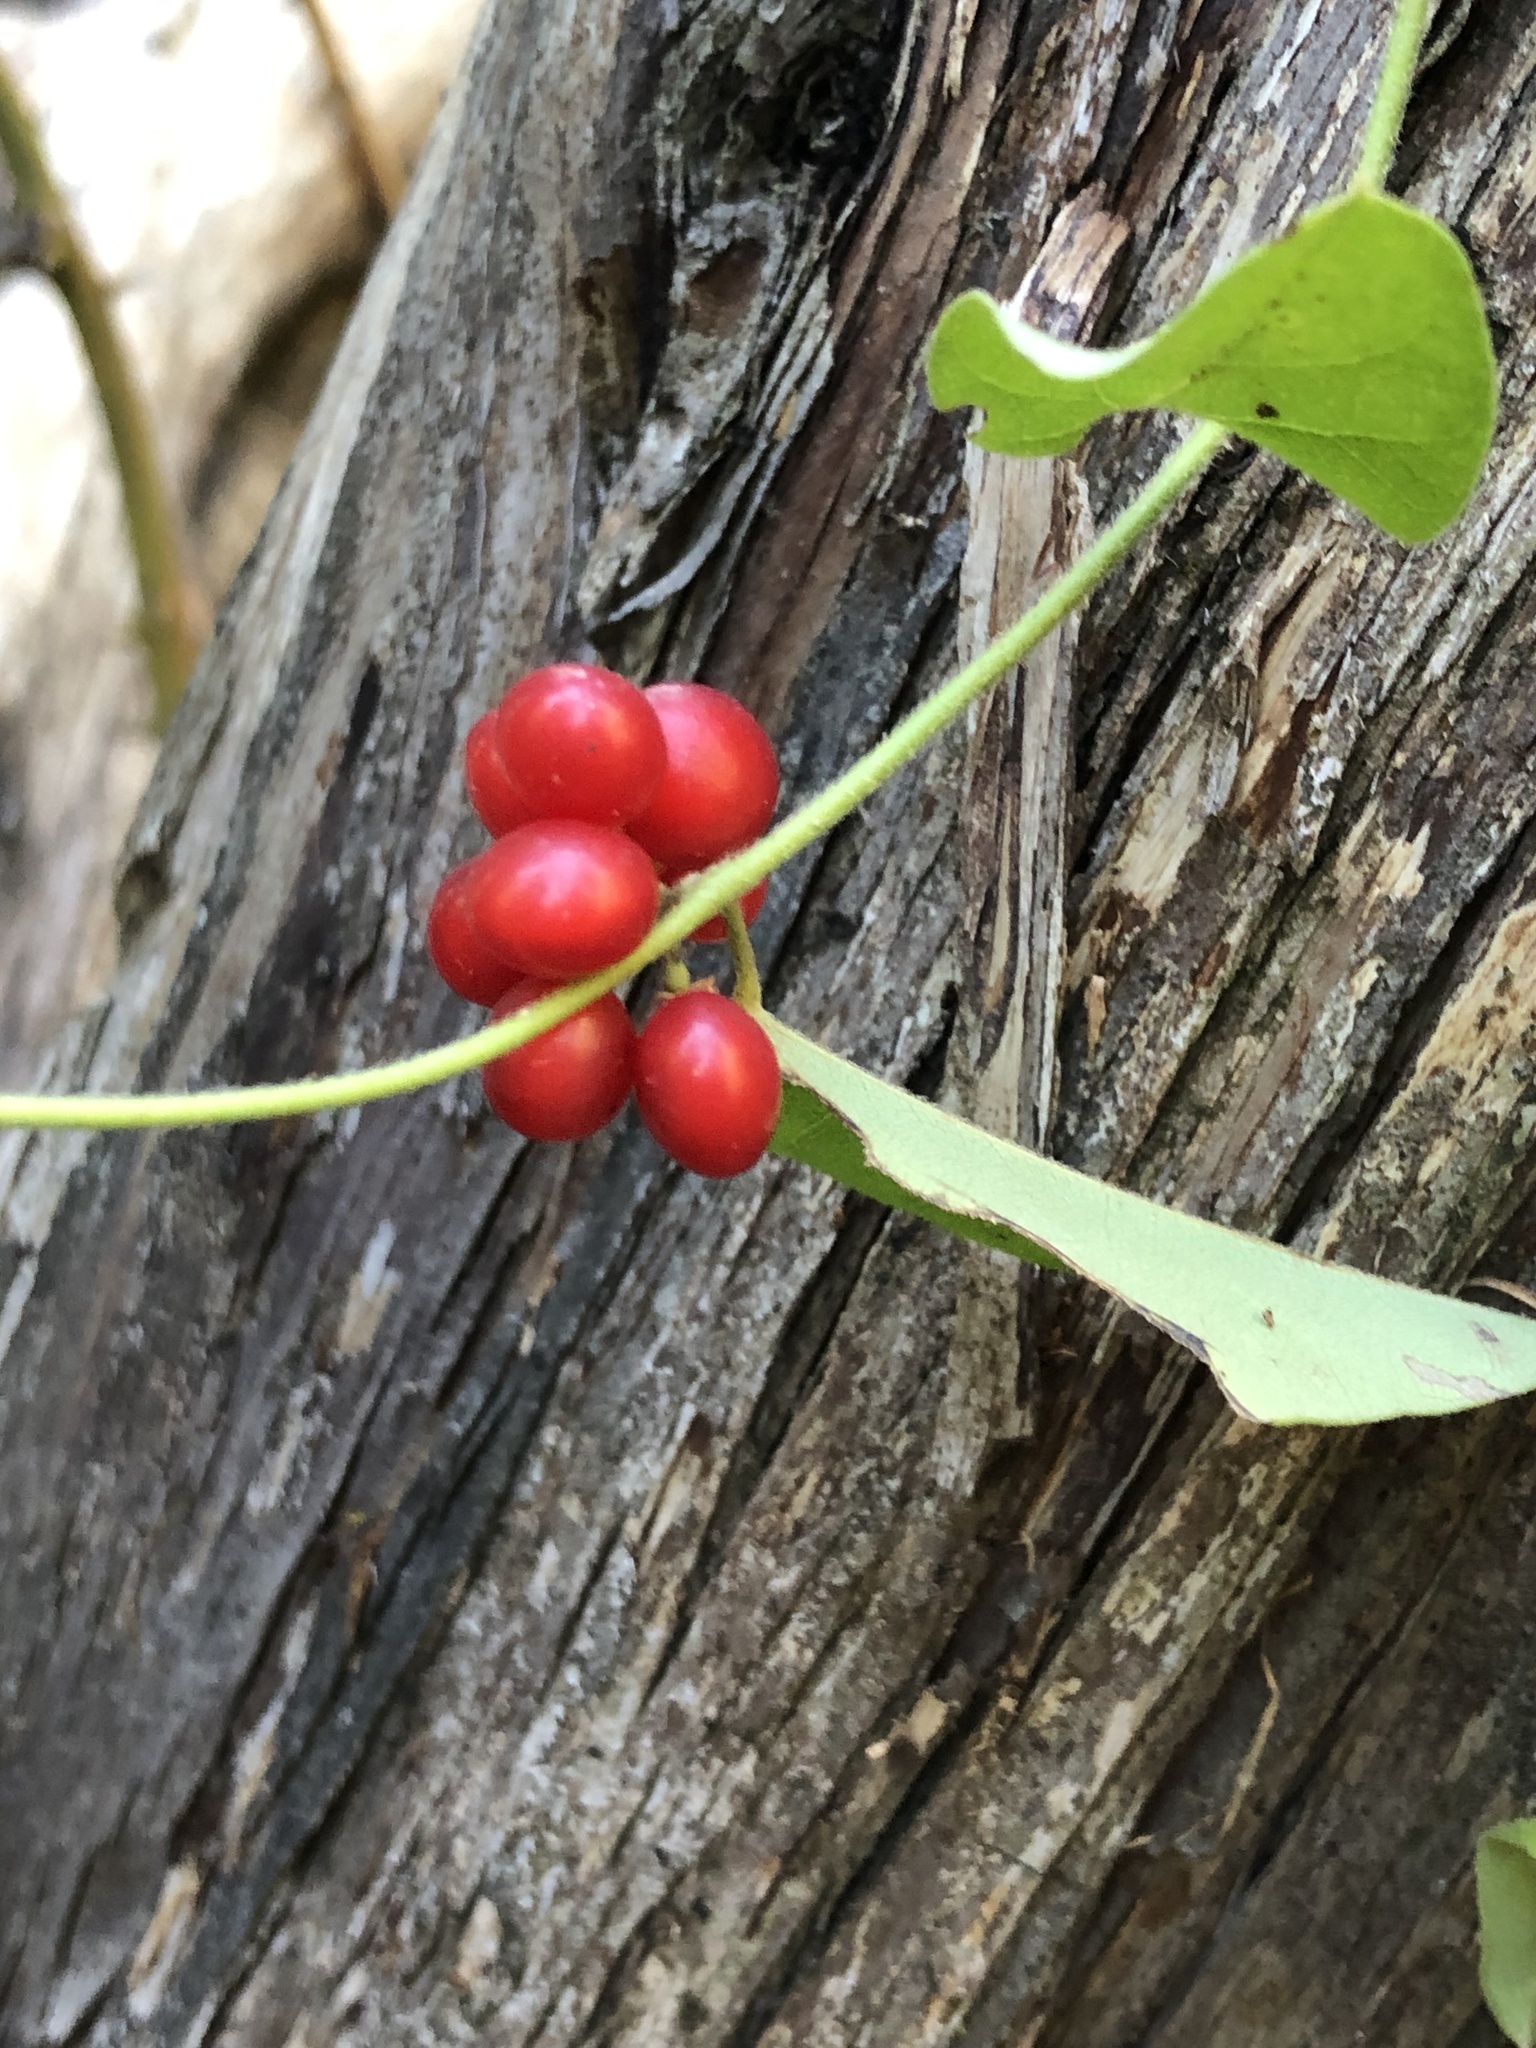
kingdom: Plantae
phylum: Tracheophyta
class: Magnoliopsida
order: Ranunculales
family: Menispermaceae
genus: Cocculus
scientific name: Cocculus carolinus
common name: Carolina moonseed
